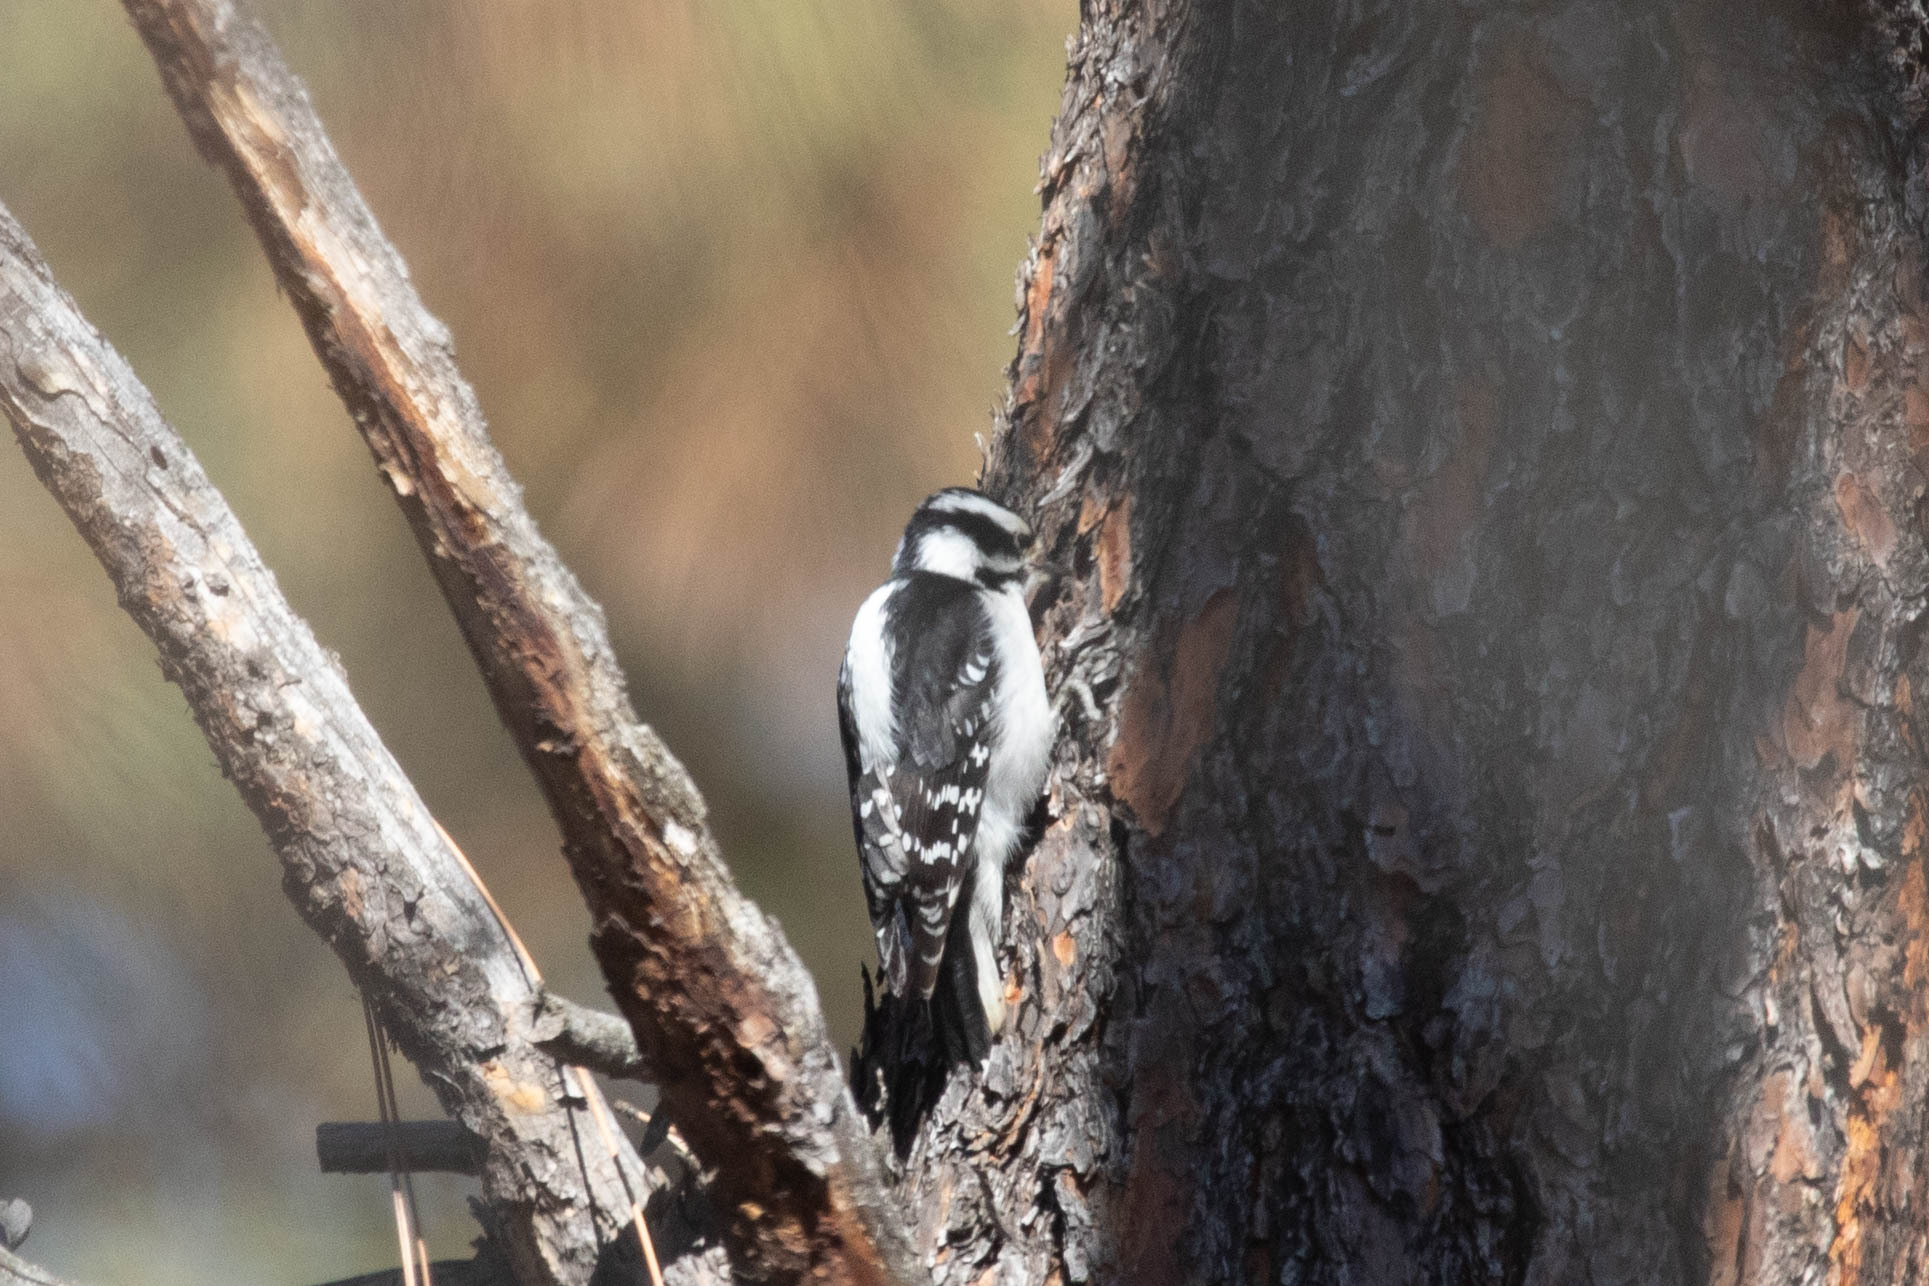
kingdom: Animalia
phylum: Chordata
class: Aves
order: Piciformes
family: Picidae
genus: Dryobates
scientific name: Dryobates pubescens
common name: Downy woodpecker
